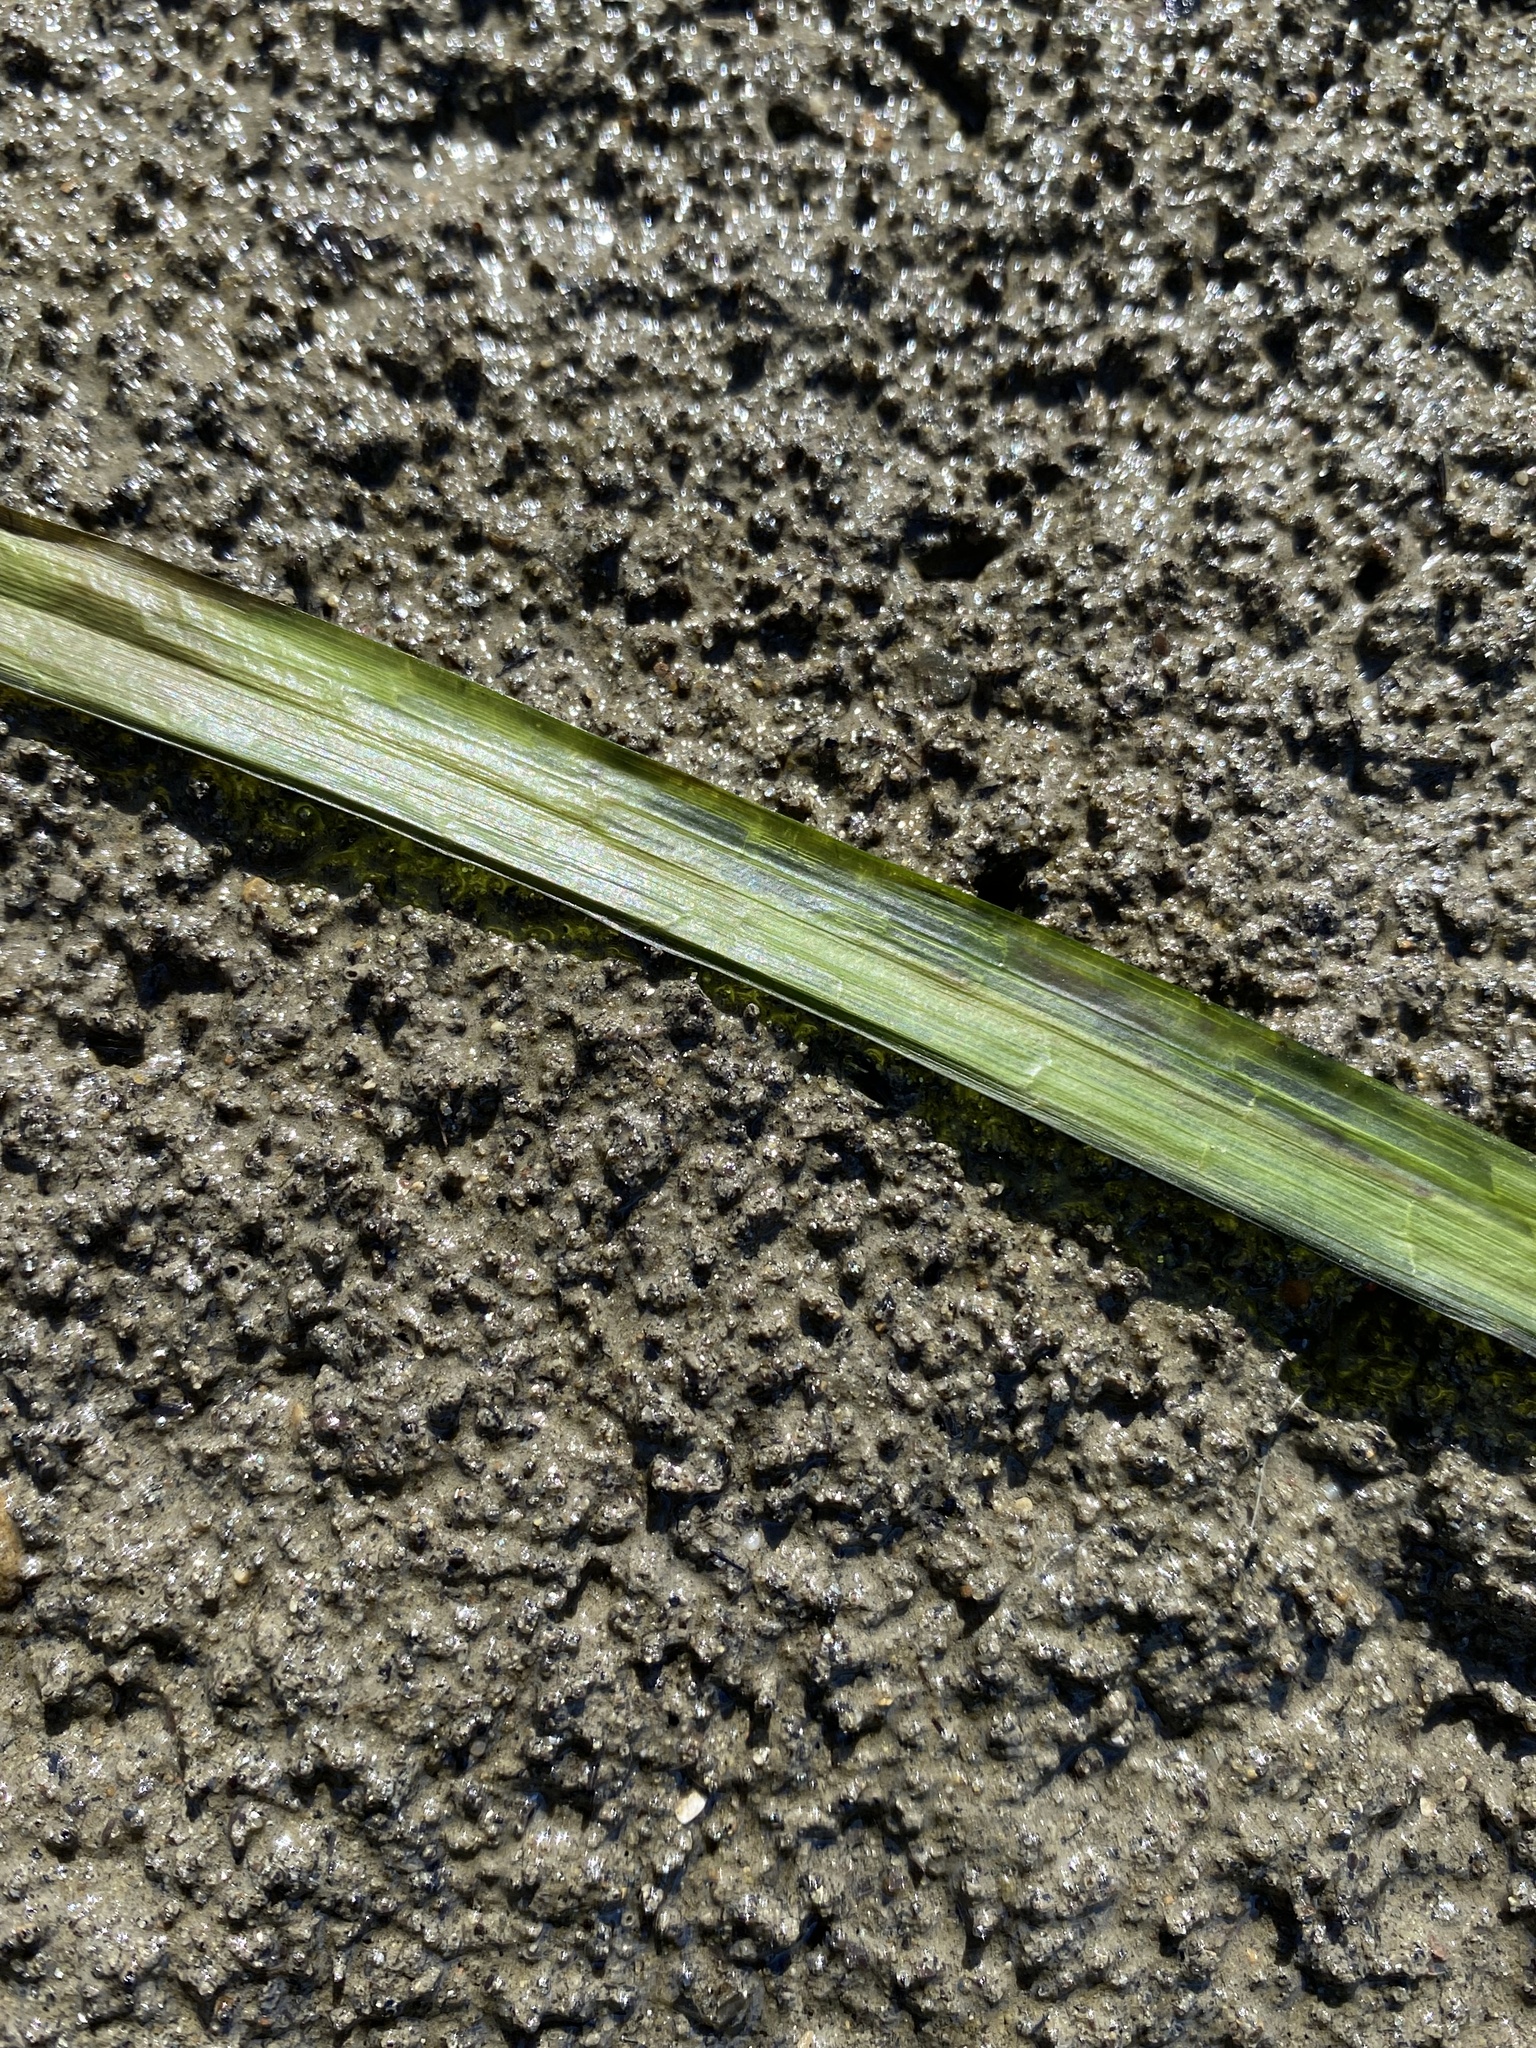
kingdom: Plantae
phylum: Tracheophyta
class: Liliopsida
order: Alismatales
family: Zosteraceae
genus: Zostera
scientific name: Zostera marina
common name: Eelgrass
